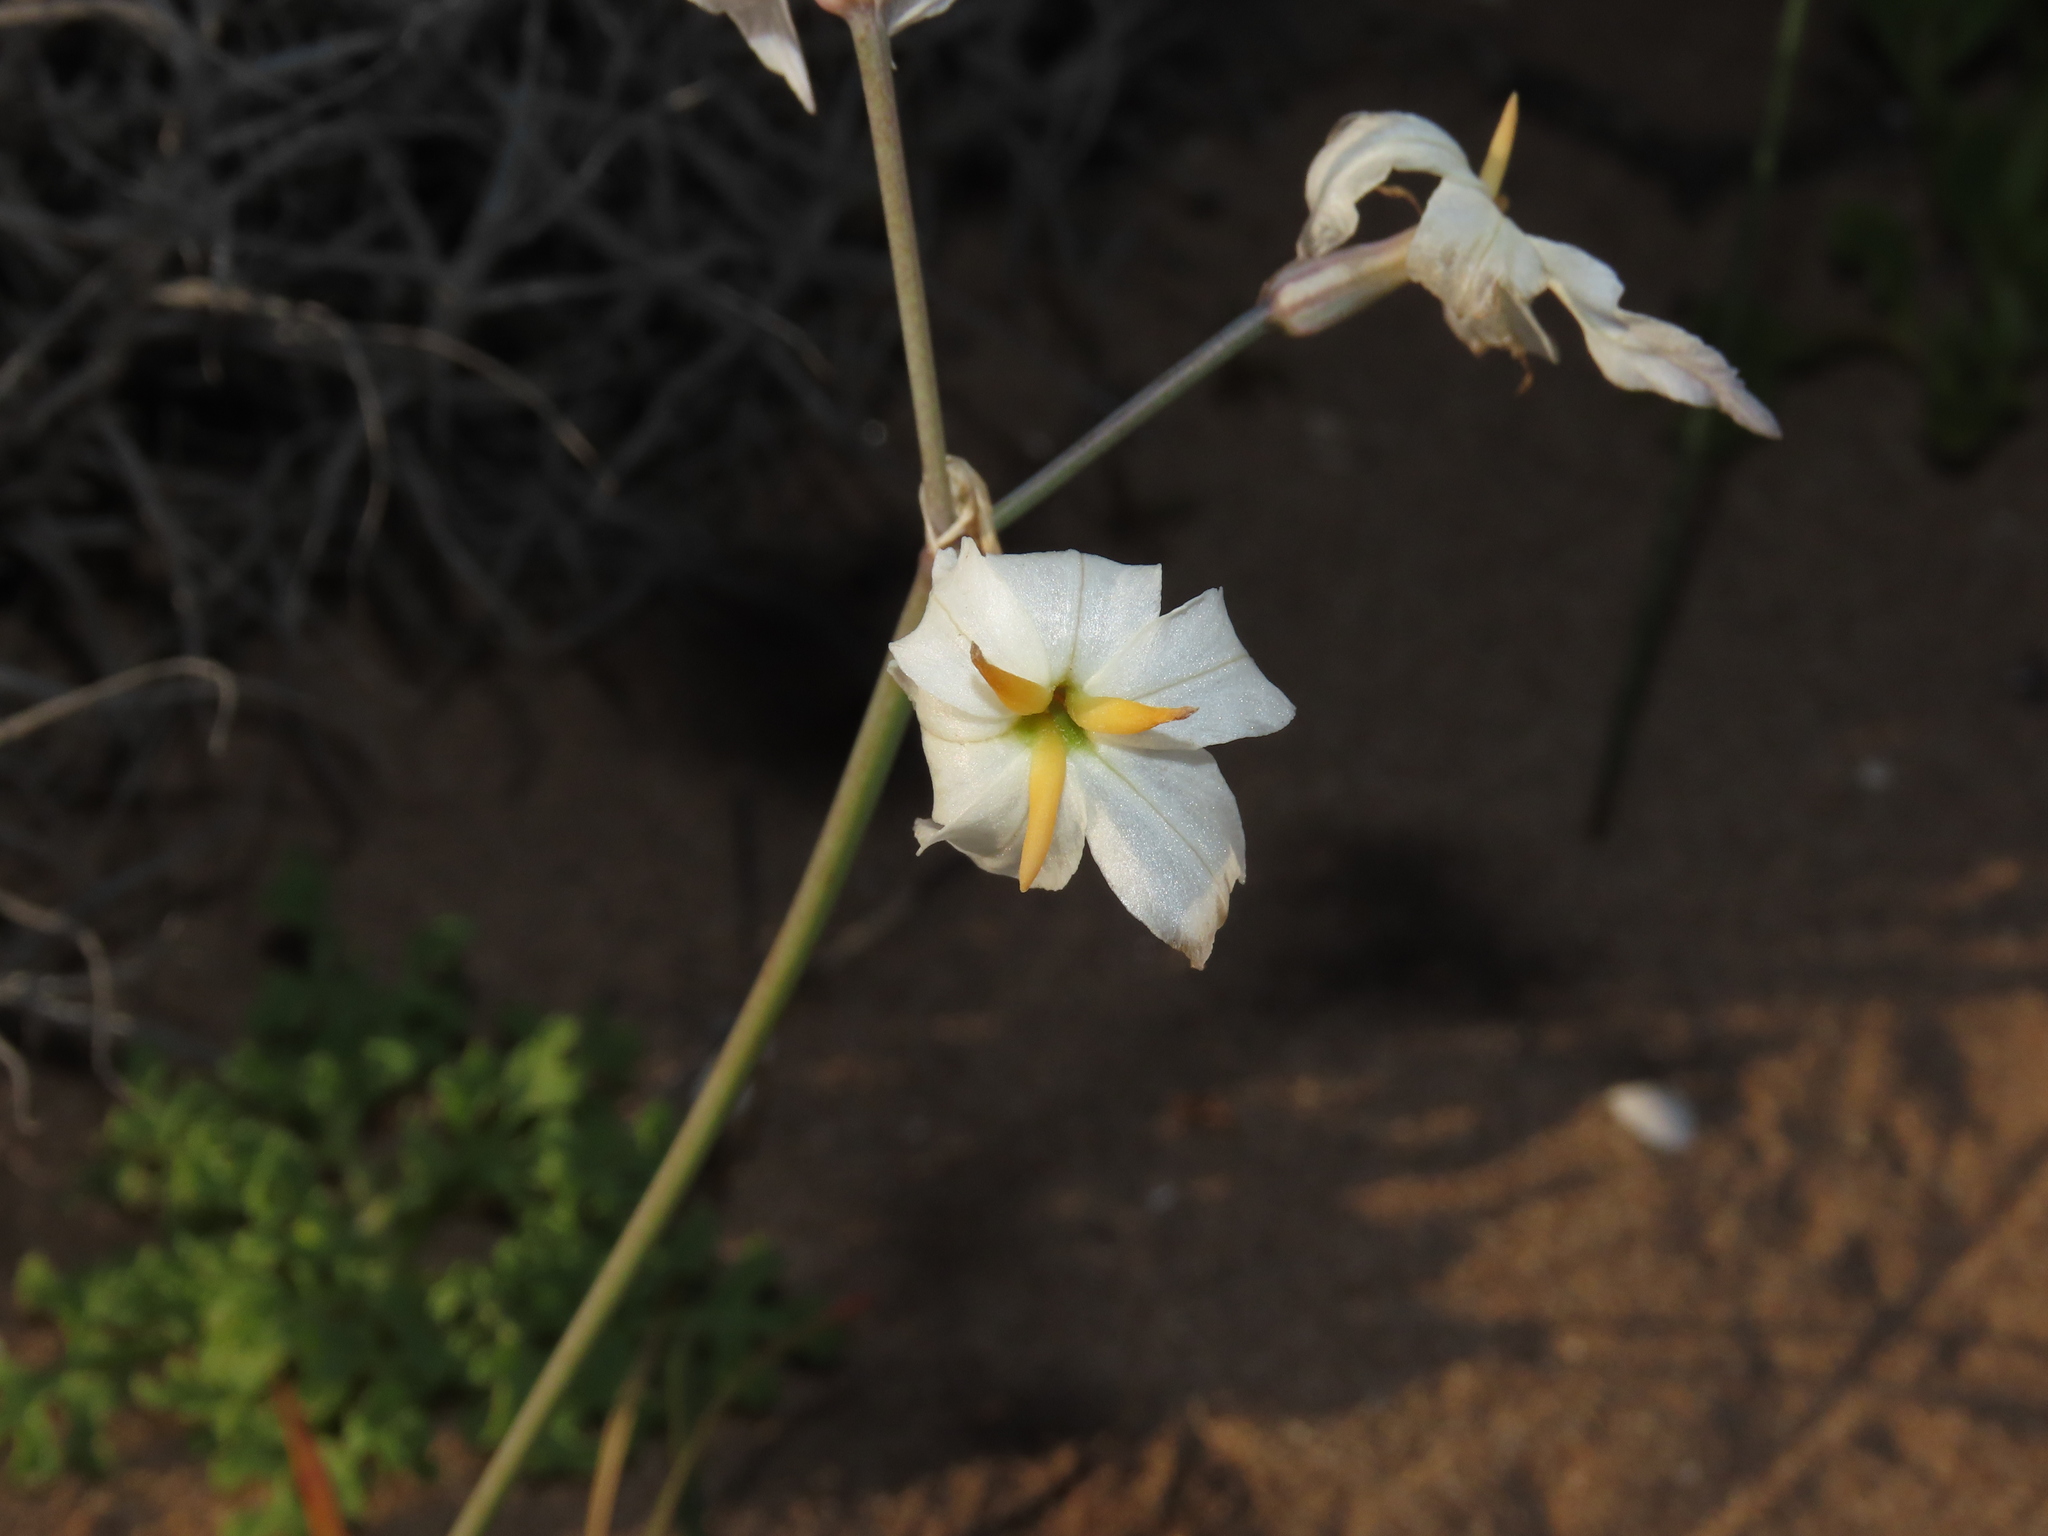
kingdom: Plantae
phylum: Tracheophyta
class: Liliopsida
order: Asparagales
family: Amaryllidaceae
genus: Leucocoryne
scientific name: Leucocoryne appendiculata
